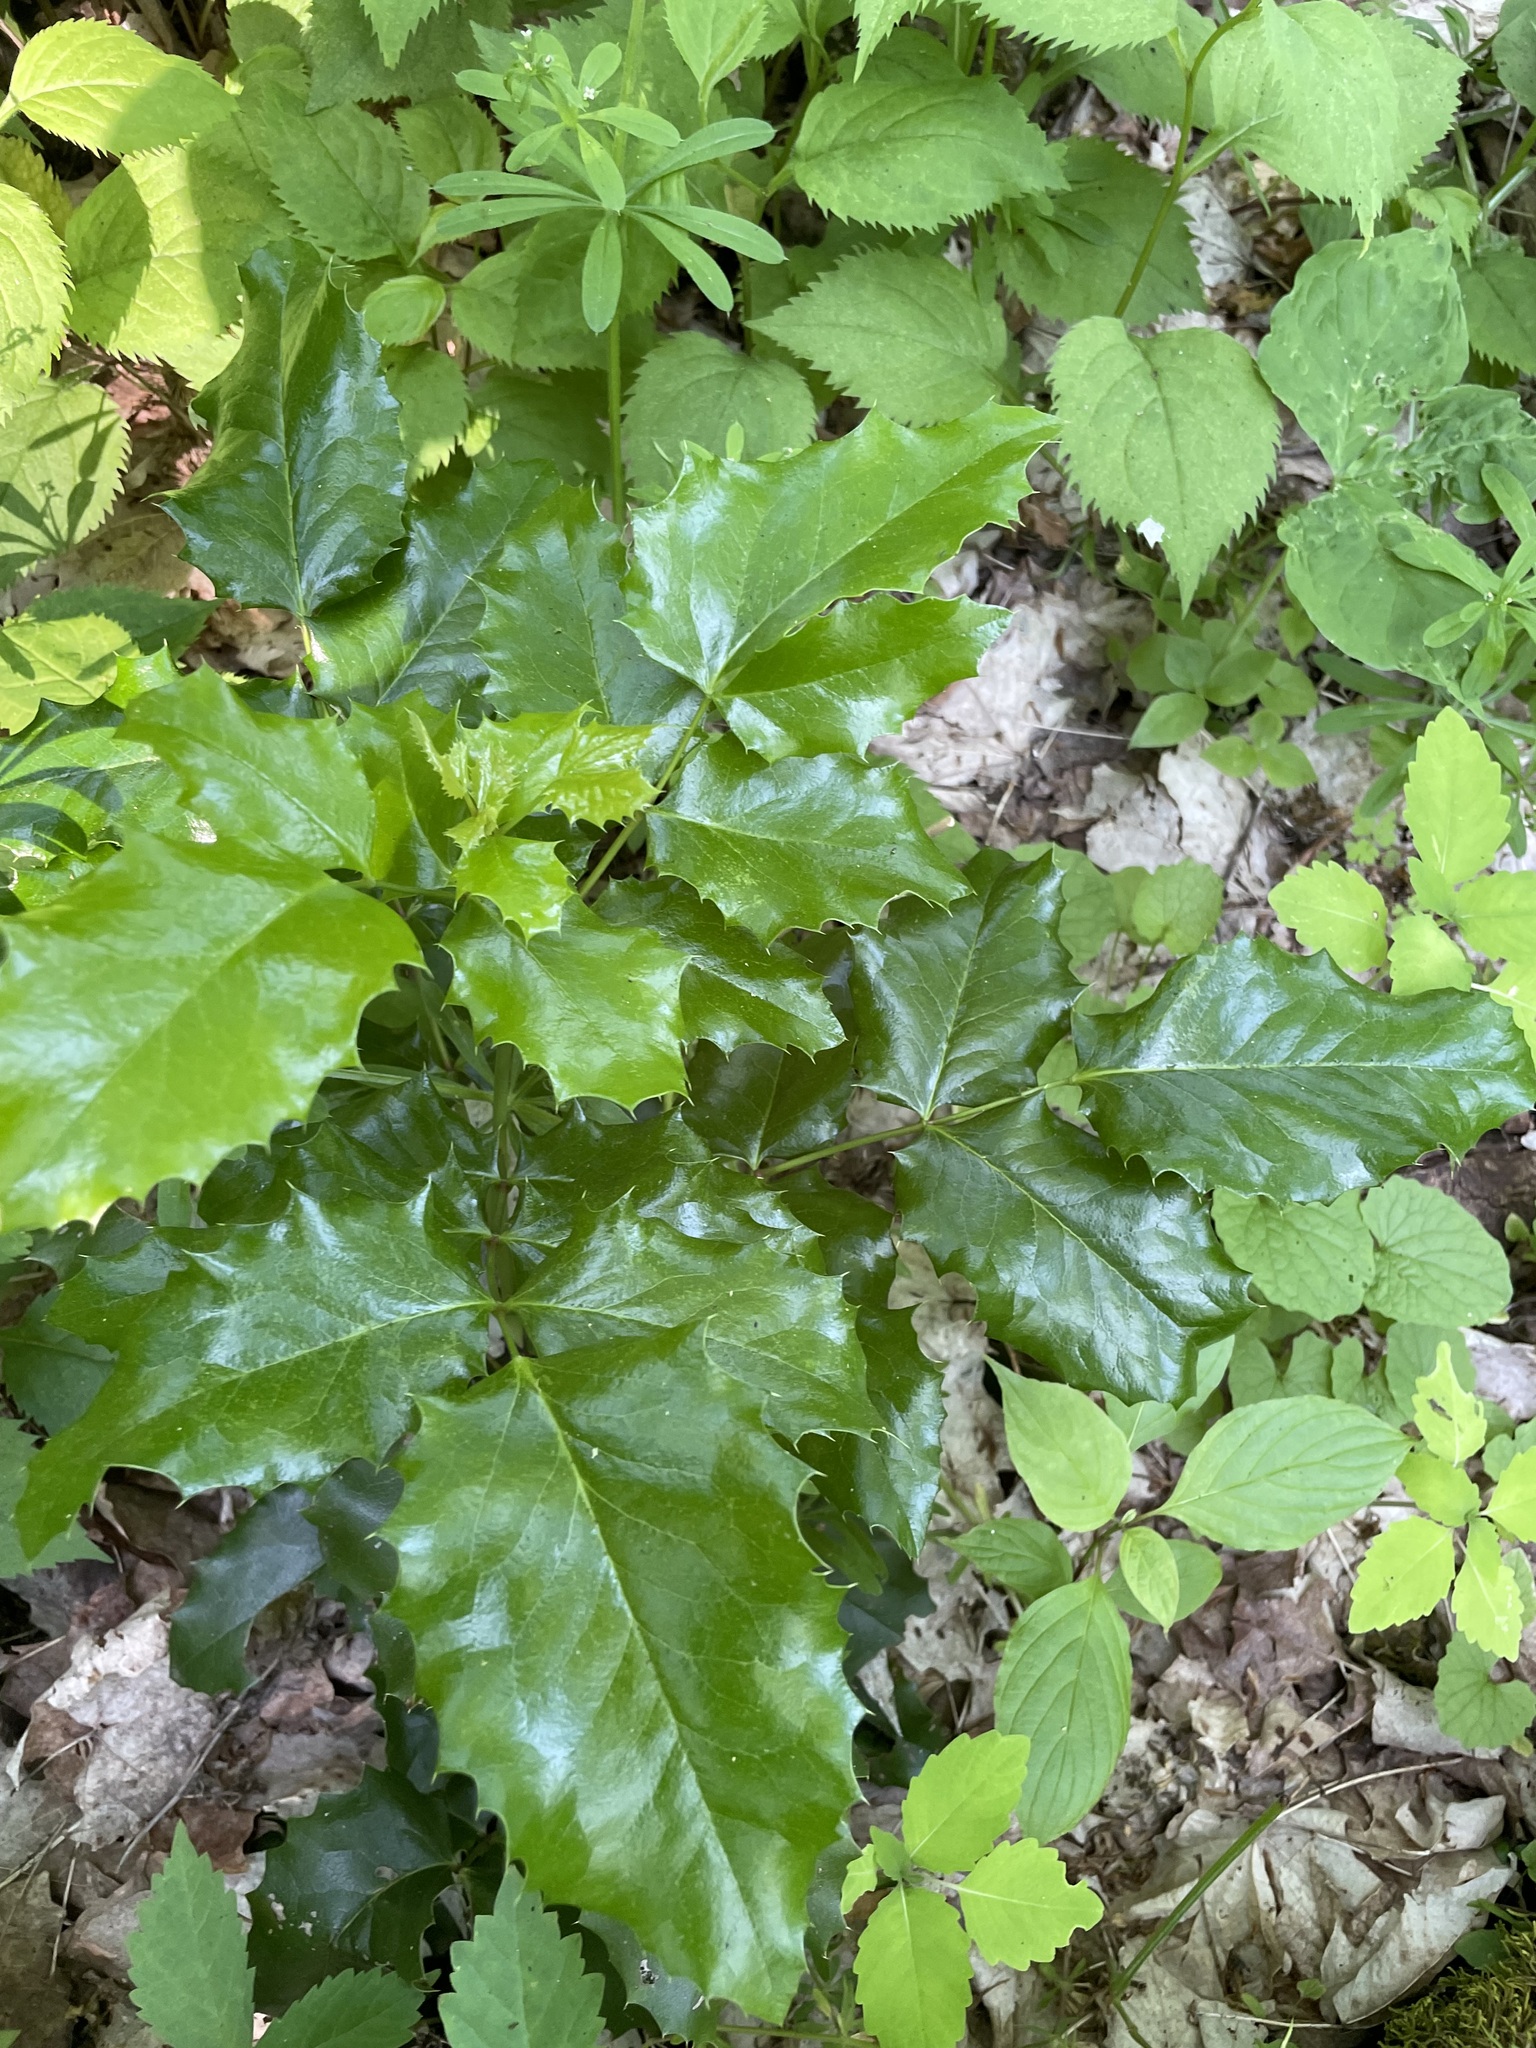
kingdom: Plantae
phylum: Tracheophyta
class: Magnoliopsida
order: Ranunculales
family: Berberidaceae
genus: Mahonia
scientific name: Mahonia aquifolium
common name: Oregon-grape
